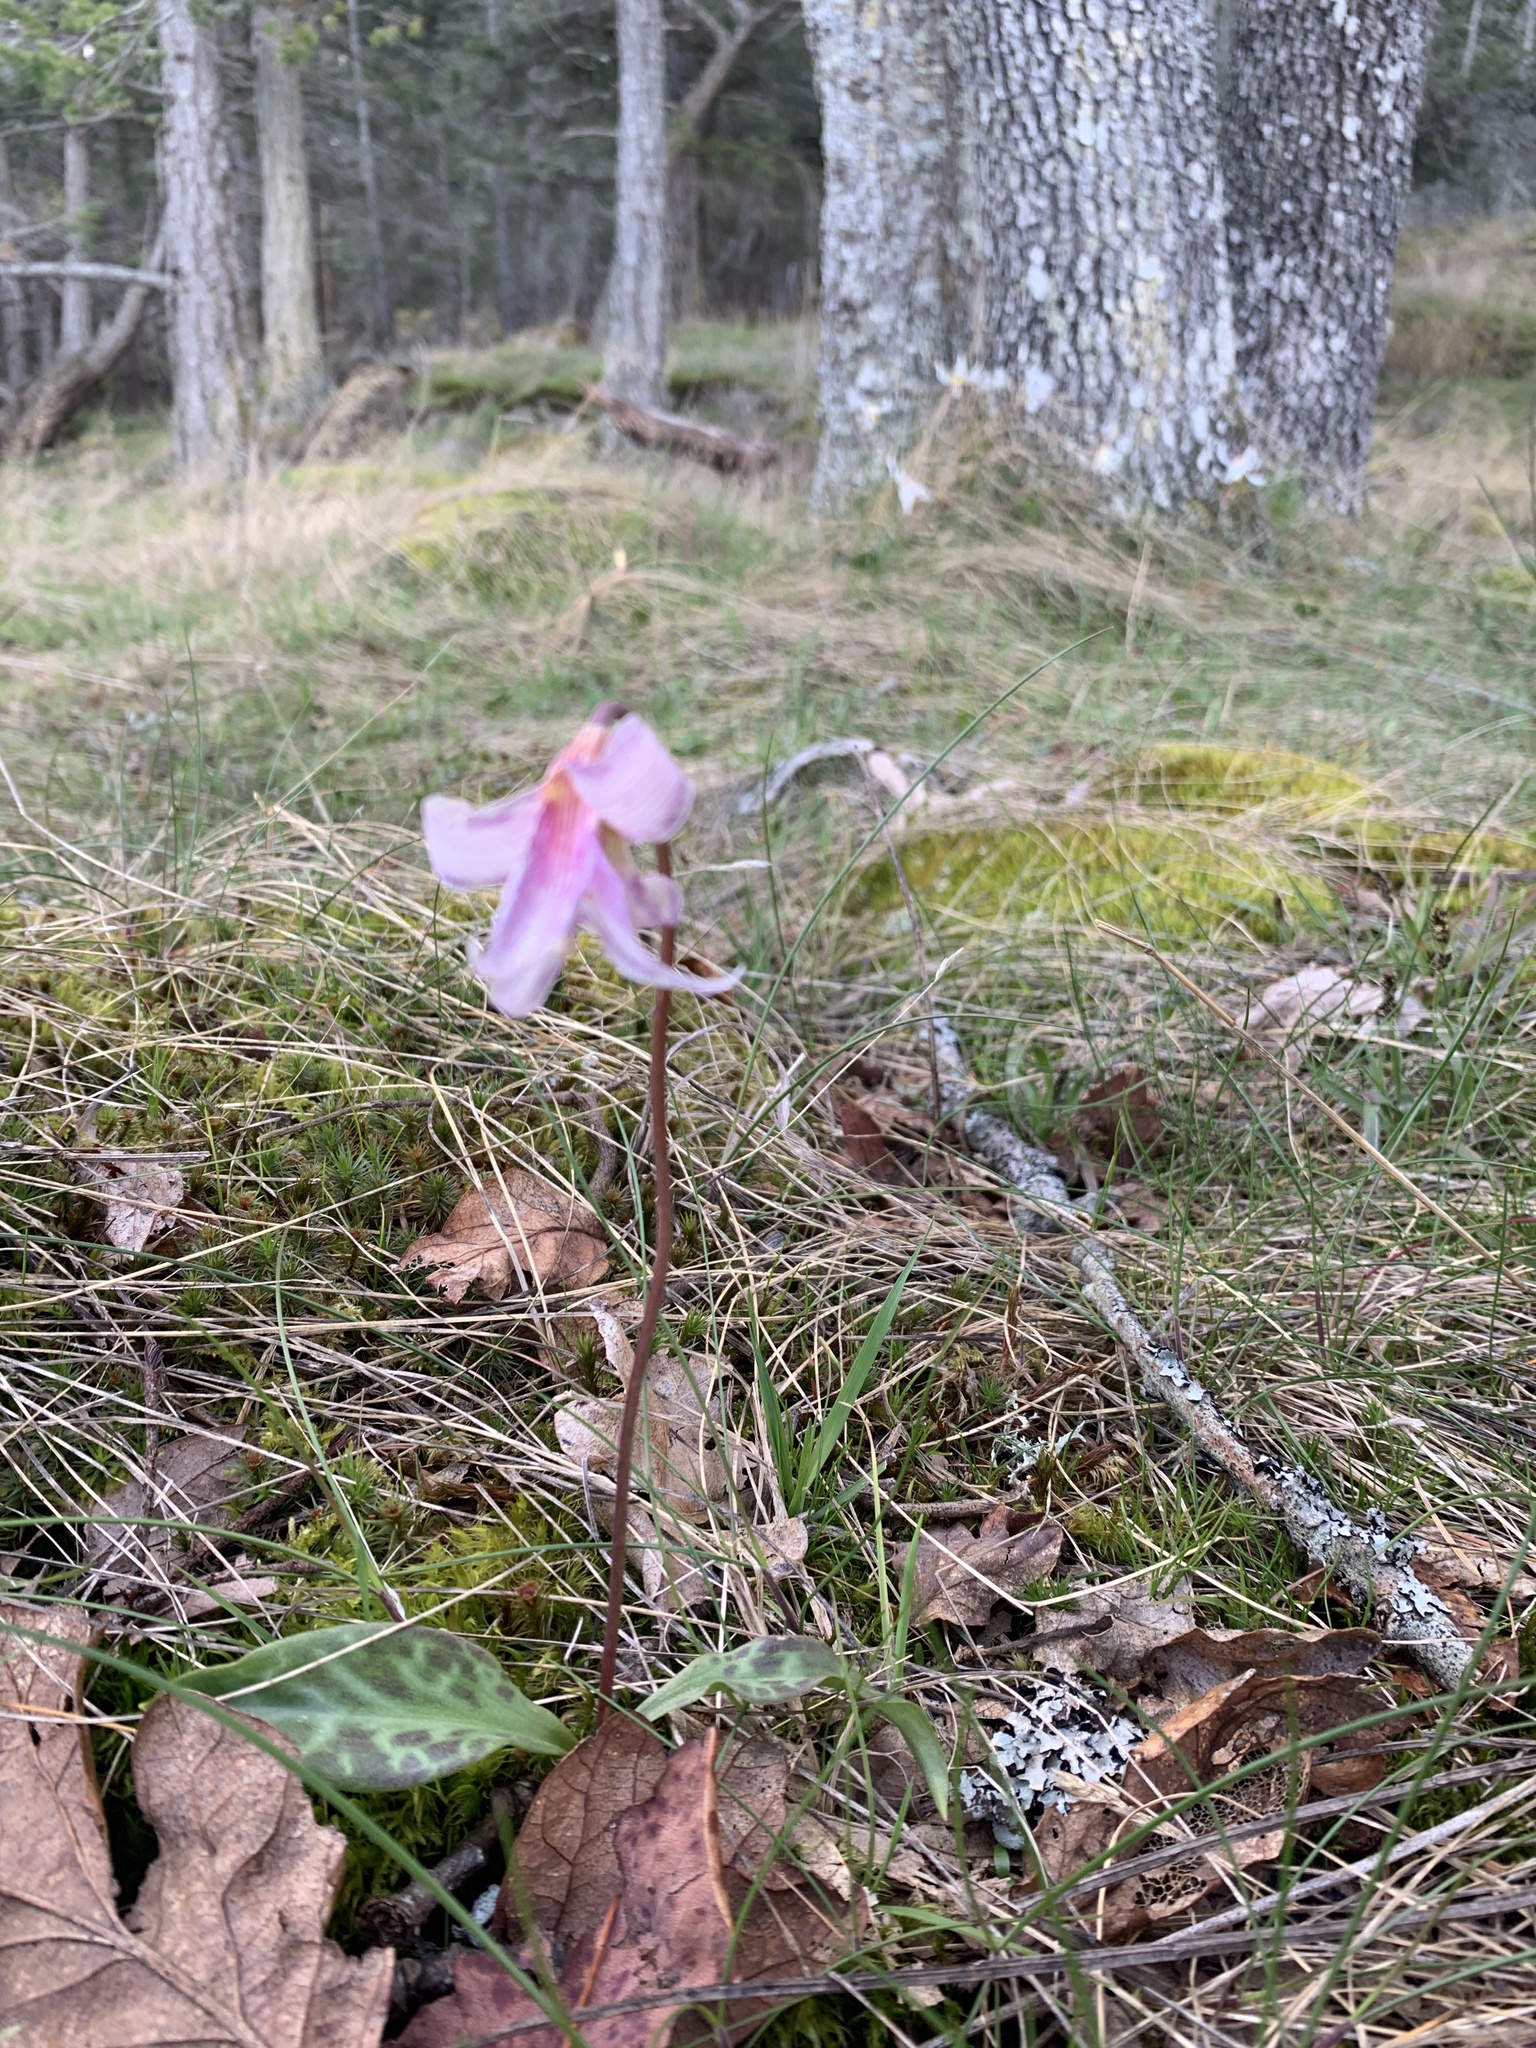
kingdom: Plantae
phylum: Tracheophyta
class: Liliopsida
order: Liliales
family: Liliaceae
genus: Erythronium
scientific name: Erythronium oregonum
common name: Giant adder's-tongue
